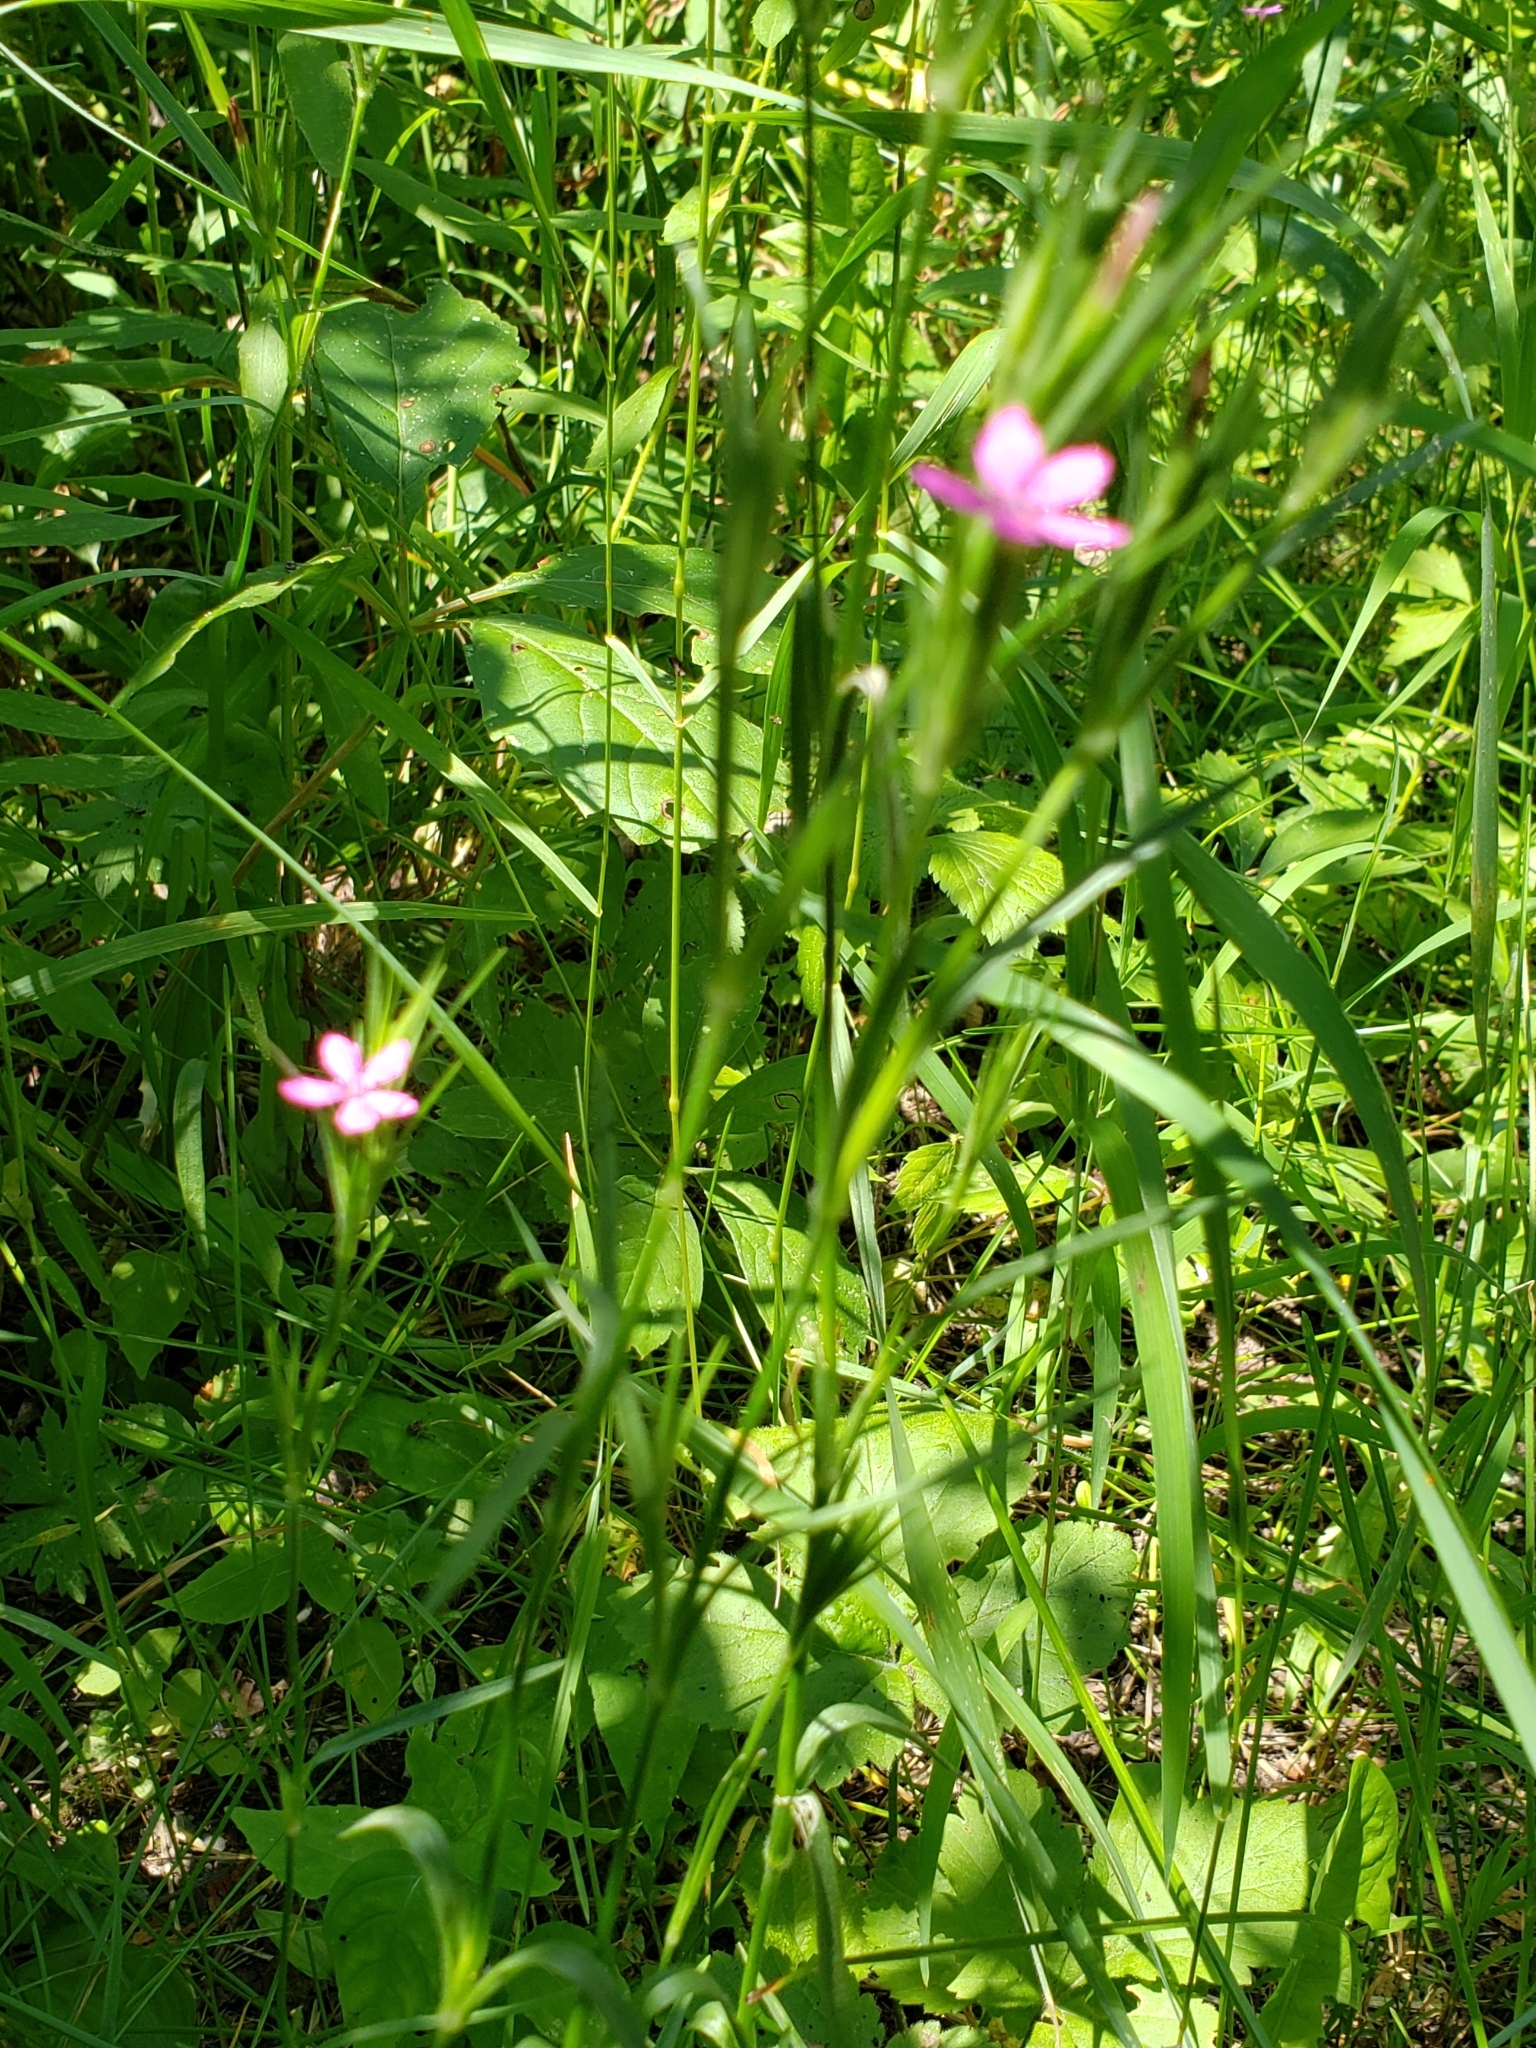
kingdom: Plantae
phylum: Tracheophyta
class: Magnoliopsida
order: Caryophyllales
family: Caryophyllaceae
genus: Dianthus
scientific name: Dianthus armeria
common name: Deptford pink
